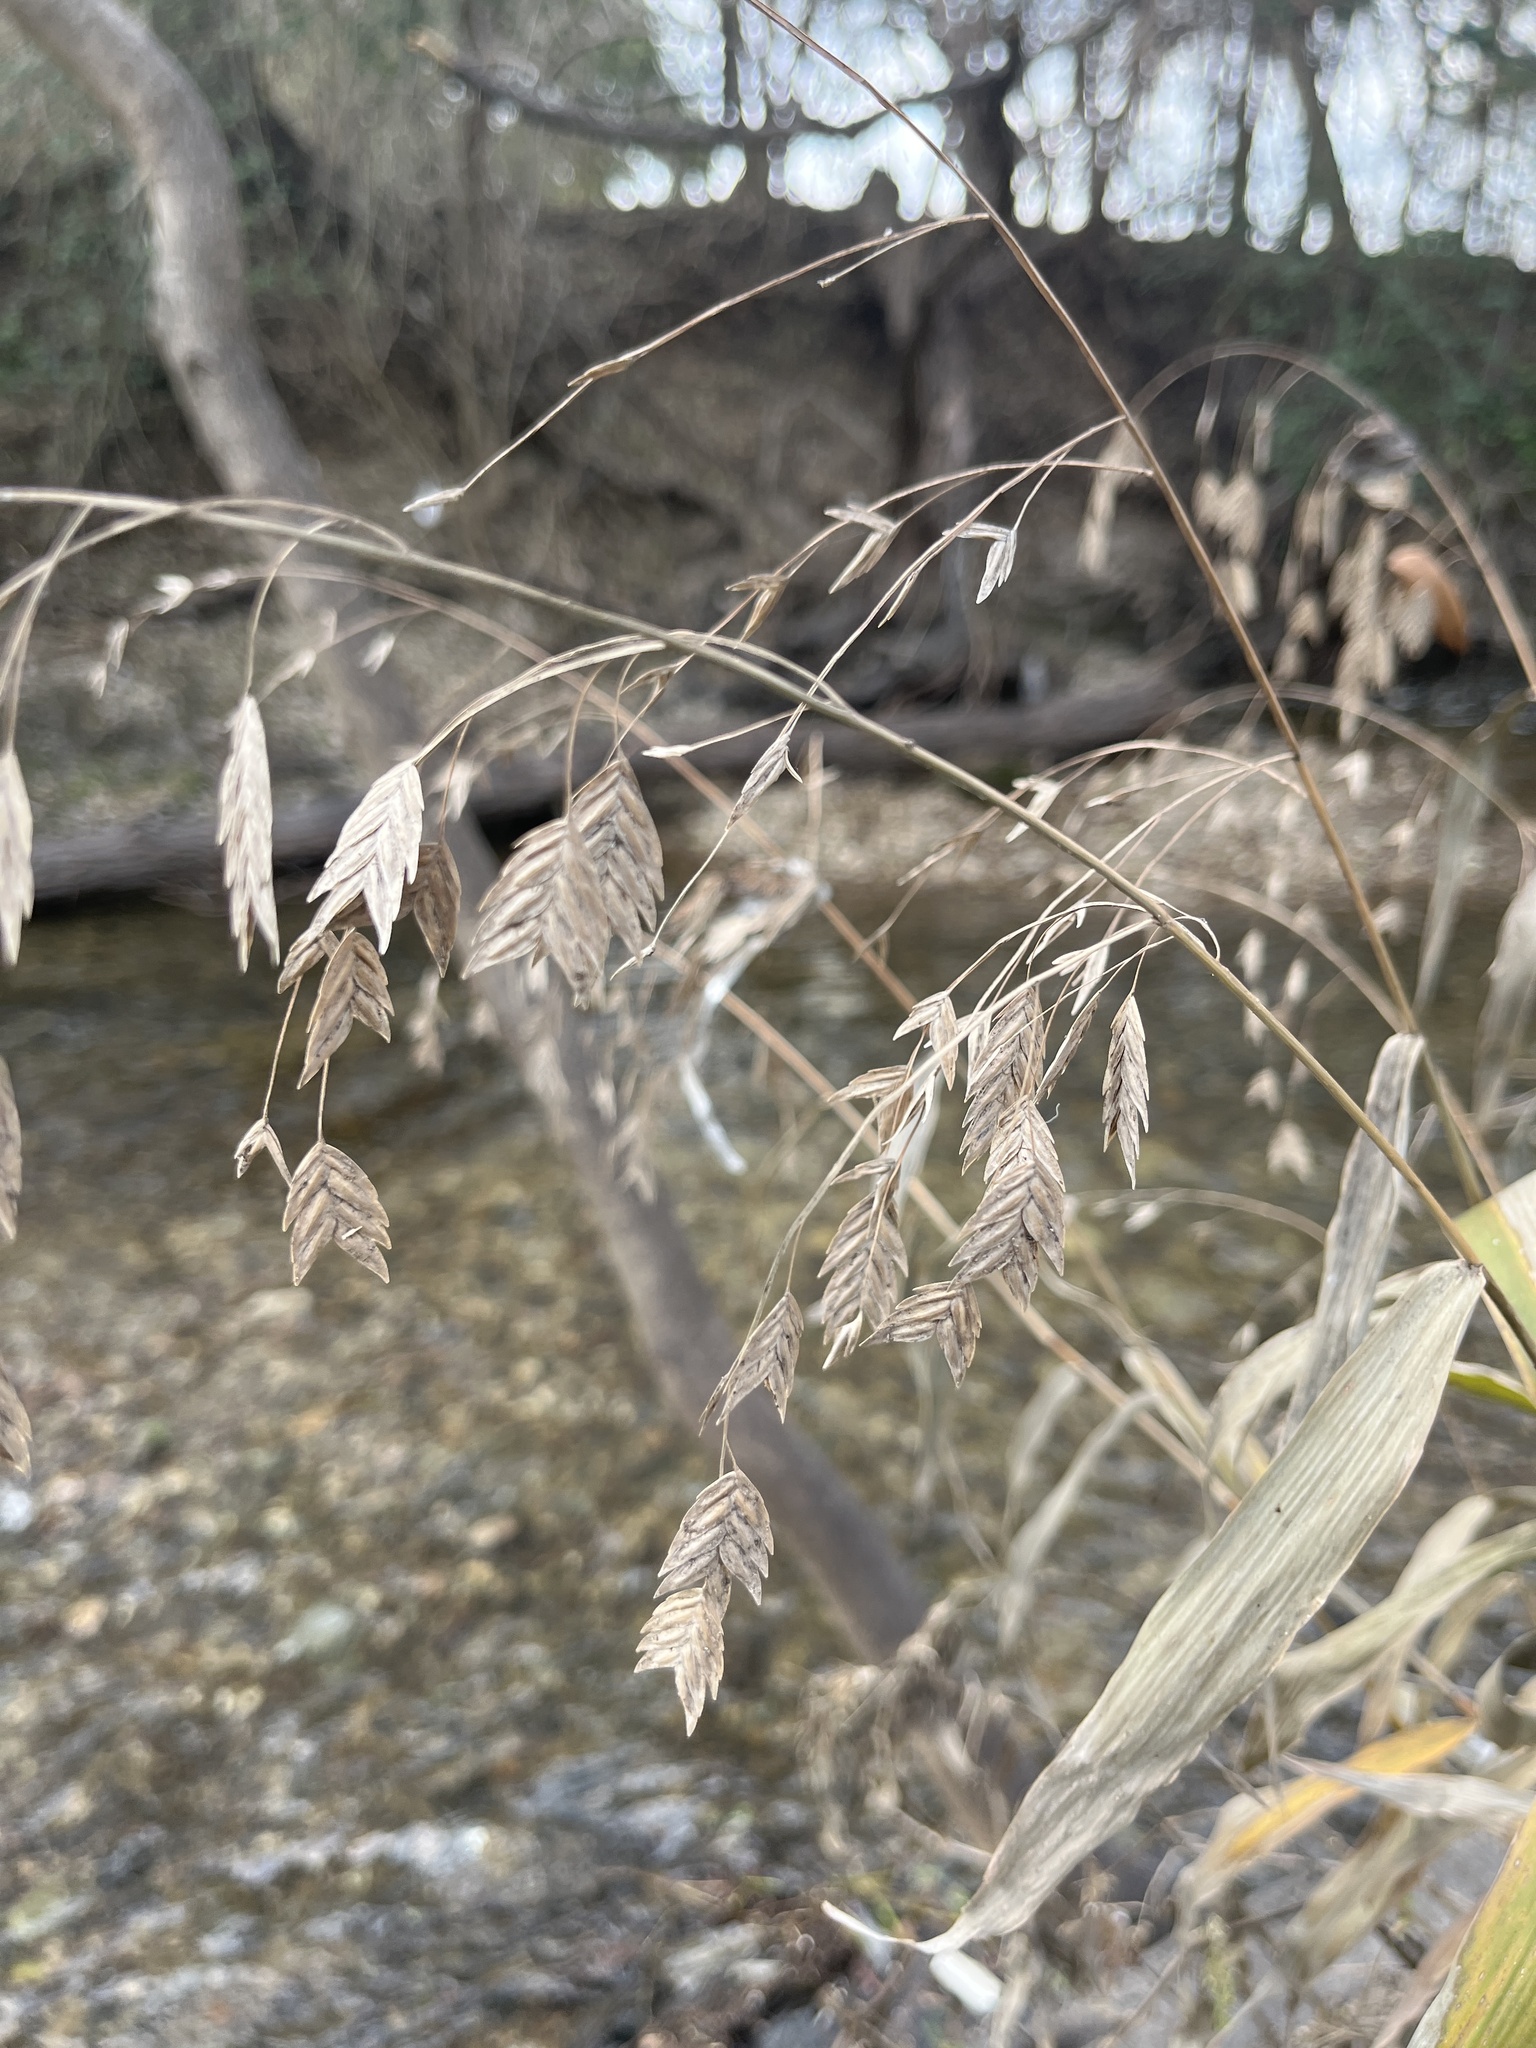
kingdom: Plantae
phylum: Tracheophyta
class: Liliopsida
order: Poales
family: Poaceae
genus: Chasmanthium
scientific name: Chasmanthium latifolium
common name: Broad-leaved chasmanthium
